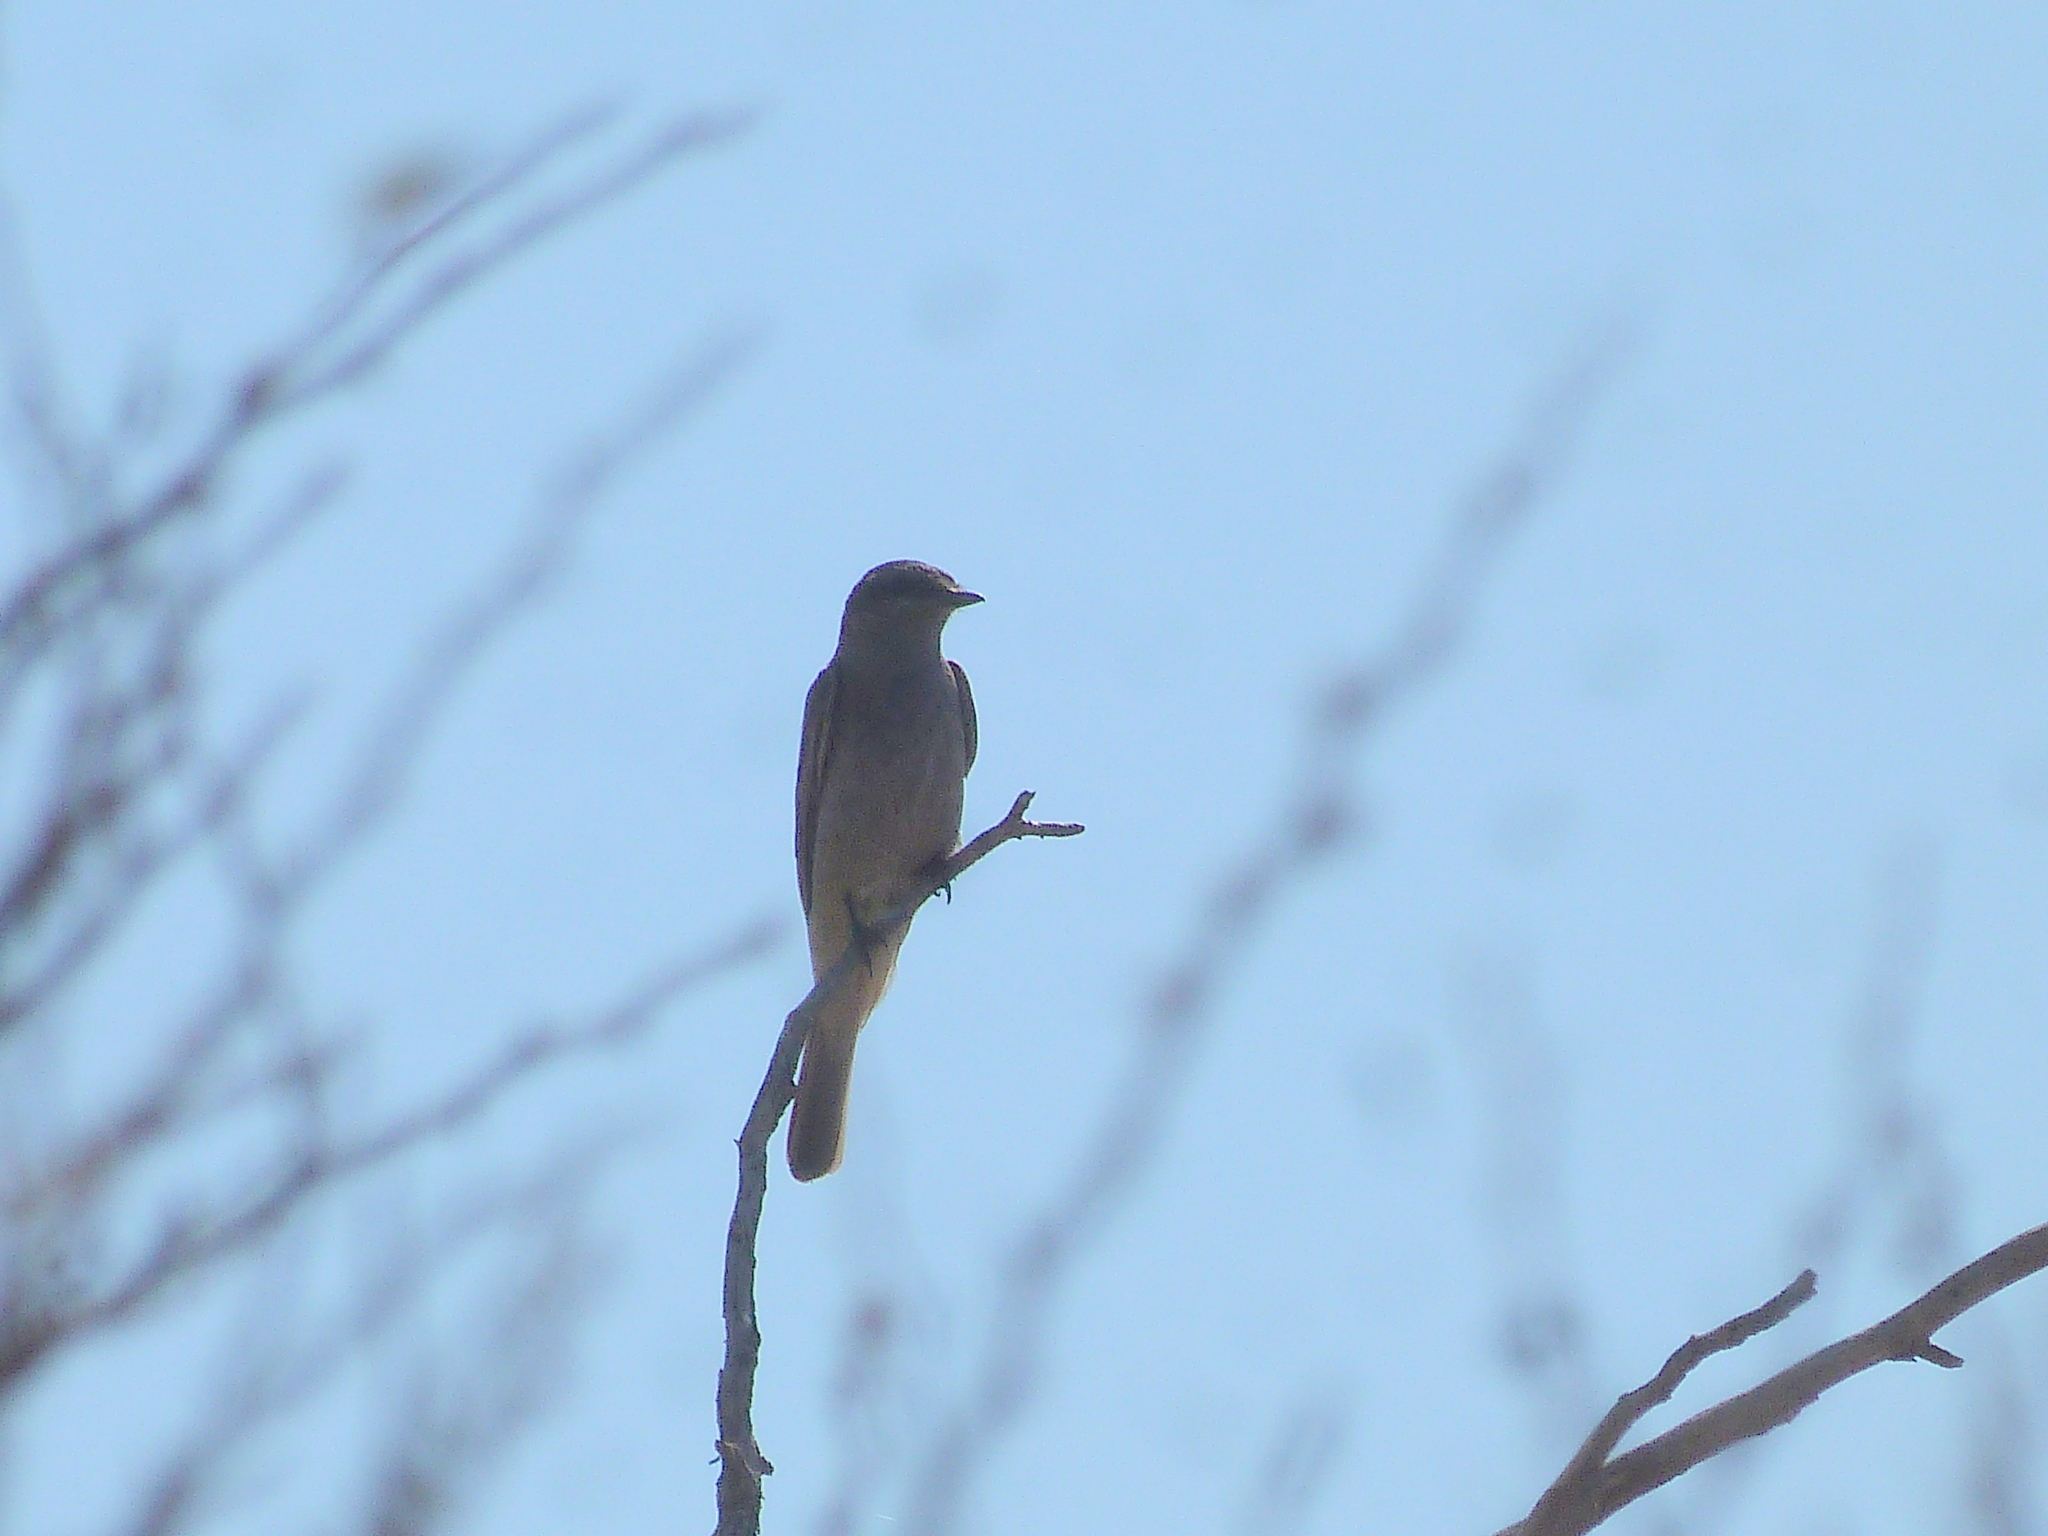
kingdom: Animalia
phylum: Chordata
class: Aves
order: Passeriformes
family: Tyrannidae
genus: Empidonomus
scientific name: Empidonomus aurantioatrocristatus
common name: Crowned slaty flycatcher
